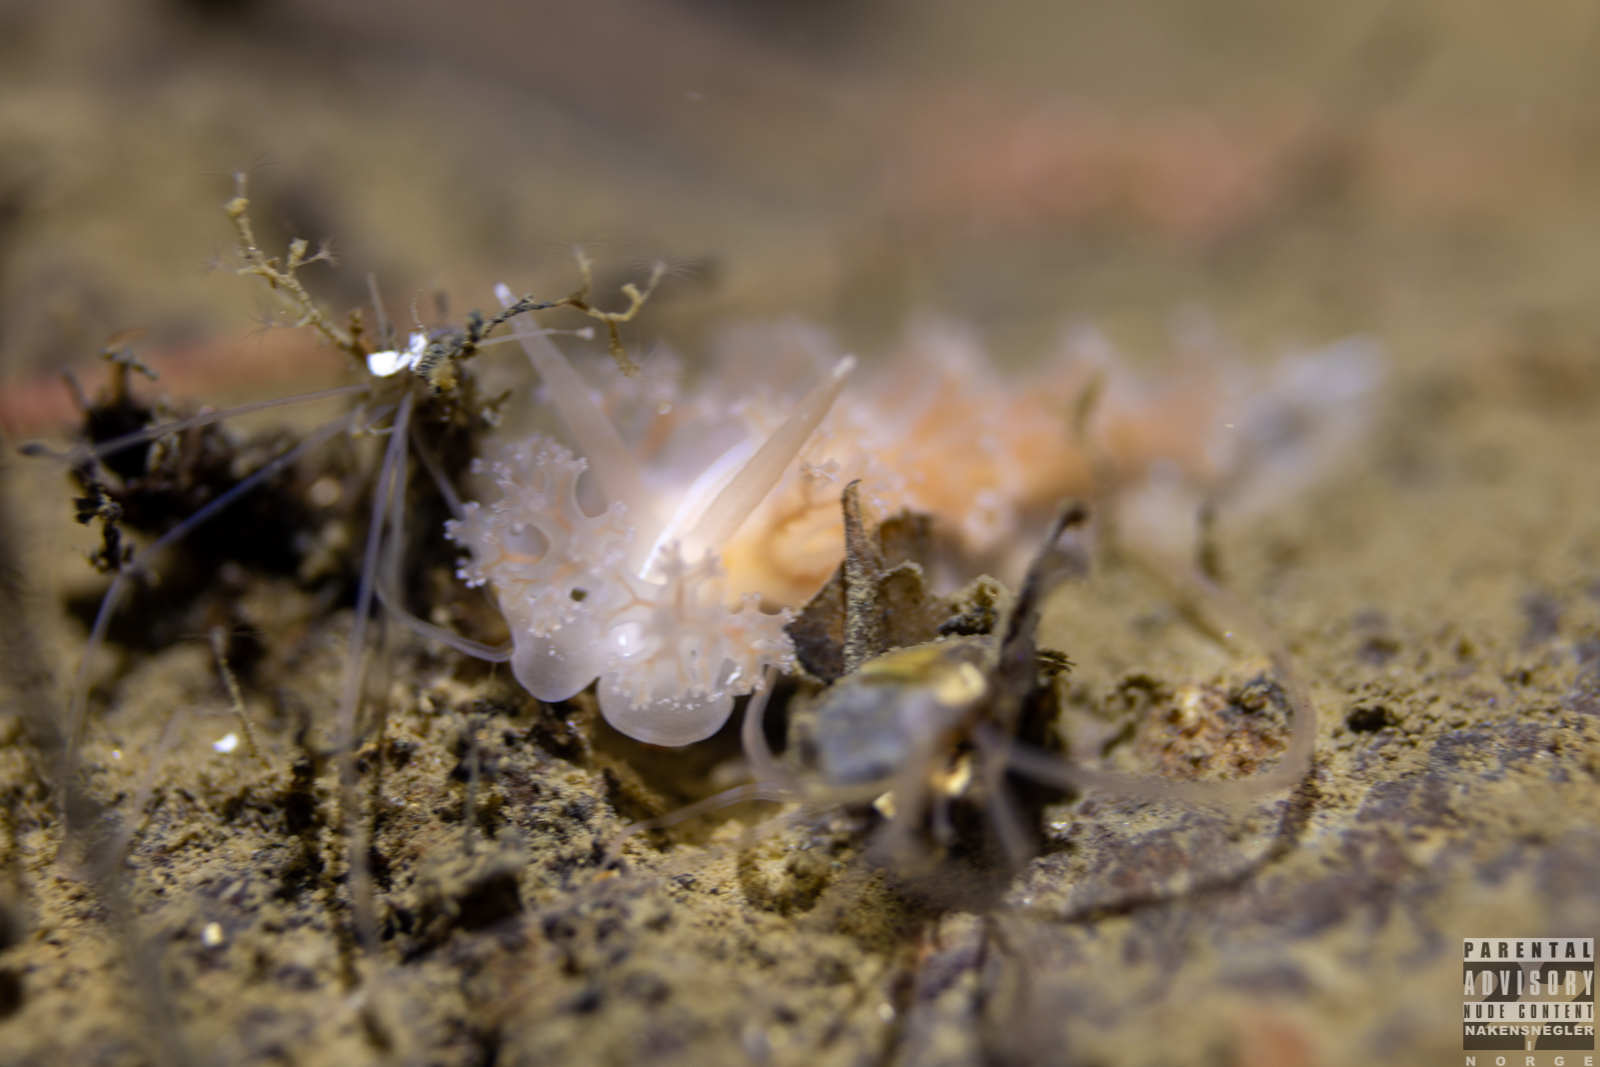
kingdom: Animalia
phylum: Mollusca
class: Gastropoda
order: Nudibranchia
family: Heroidae
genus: Hero
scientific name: Hero formosa
